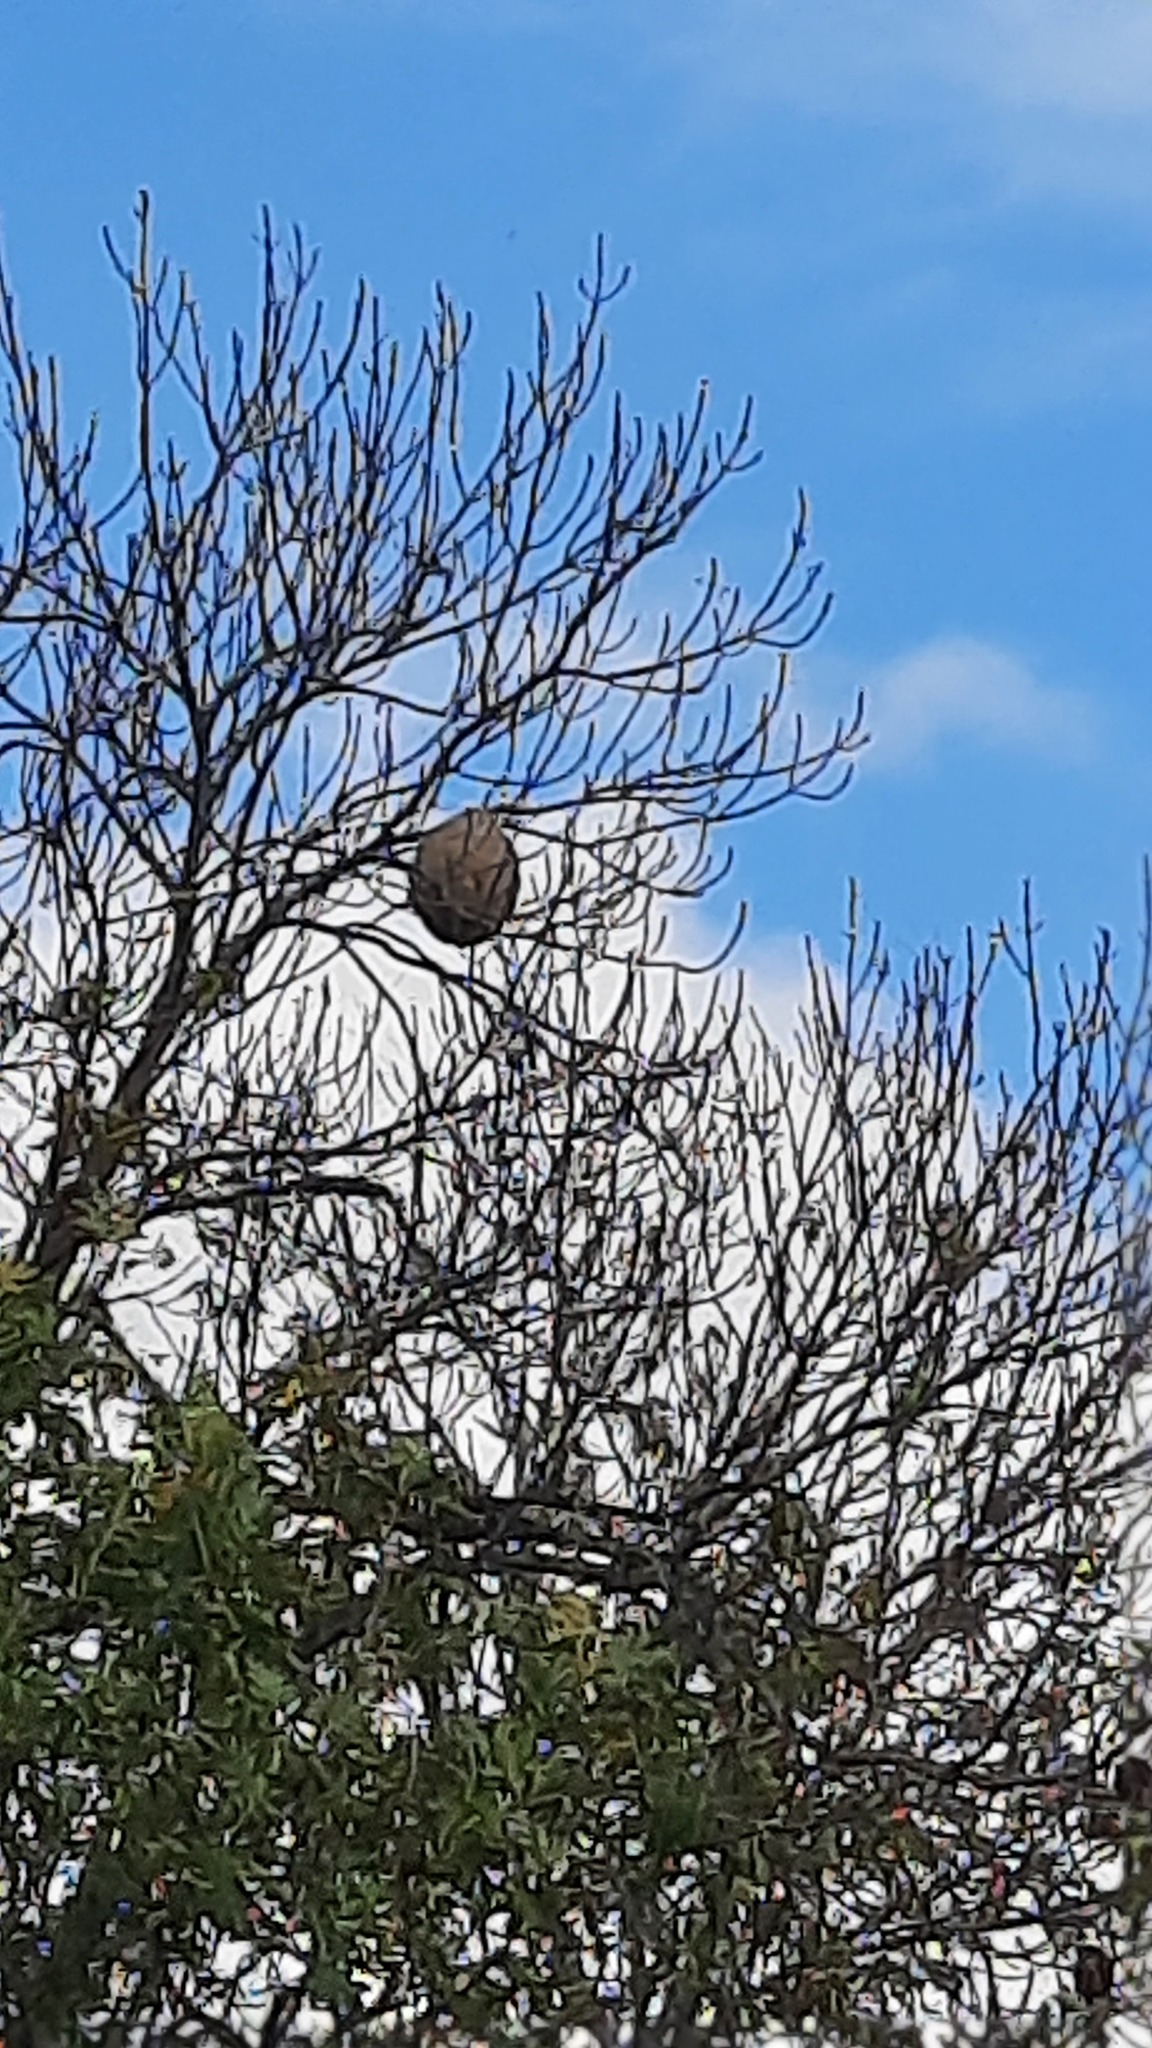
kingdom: Animalia
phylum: Arthropoda
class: Insecta
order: Hymenoptera
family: Vespidae
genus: Vespa
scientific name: Vespa velutina
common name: Asian hornet
